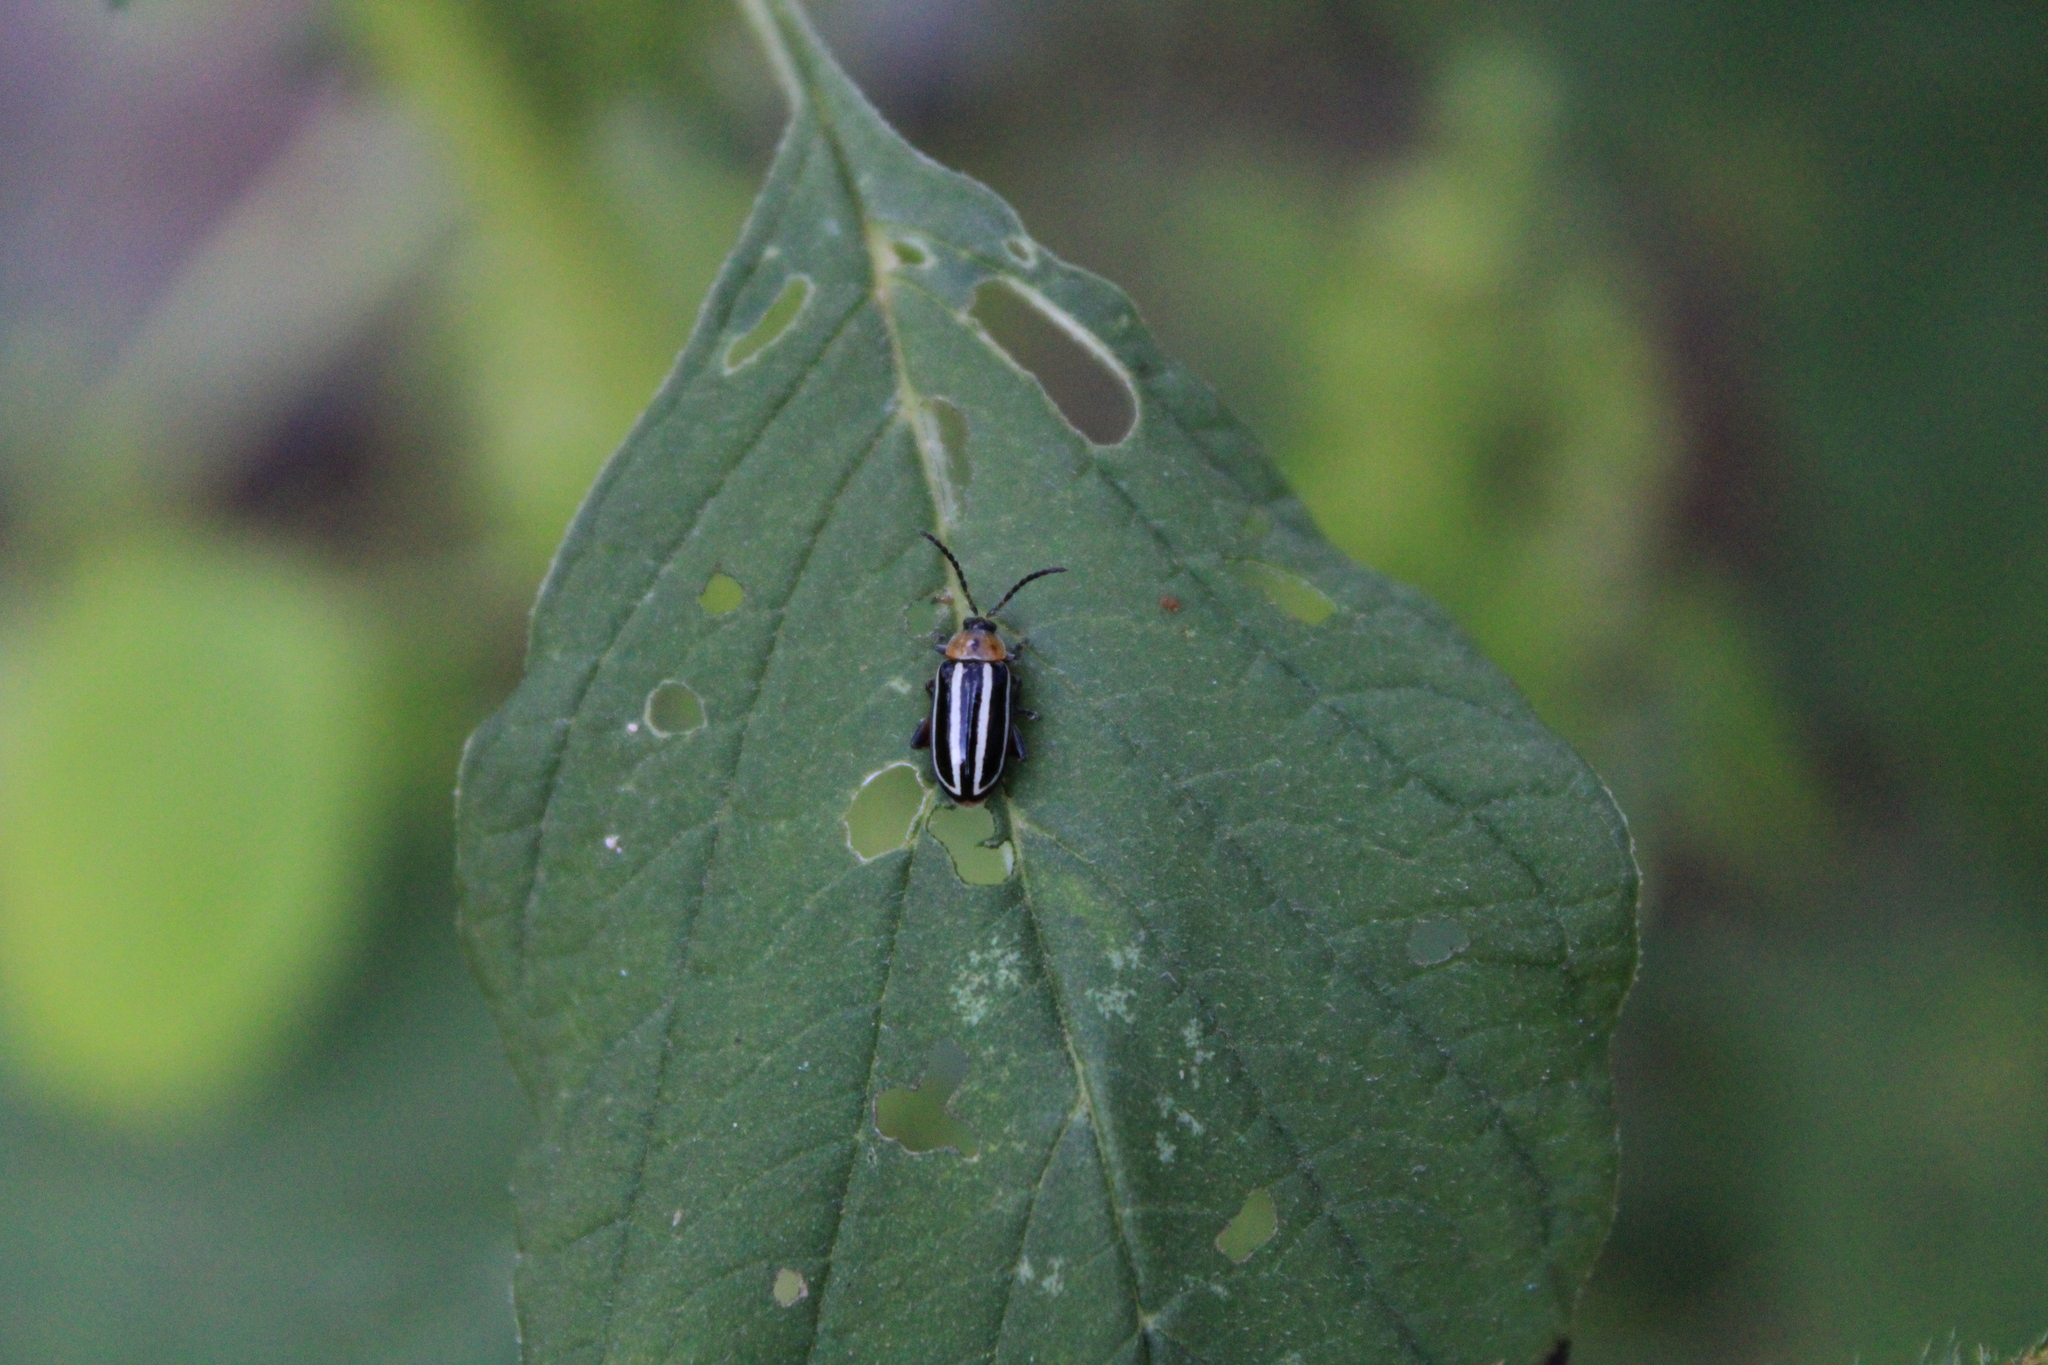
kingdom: Animalia
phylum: Arthropoda
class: Insecta
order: Coleoptera
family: Chrysomelidae
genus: Disonycha
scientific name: Disonycha pensylvanica
